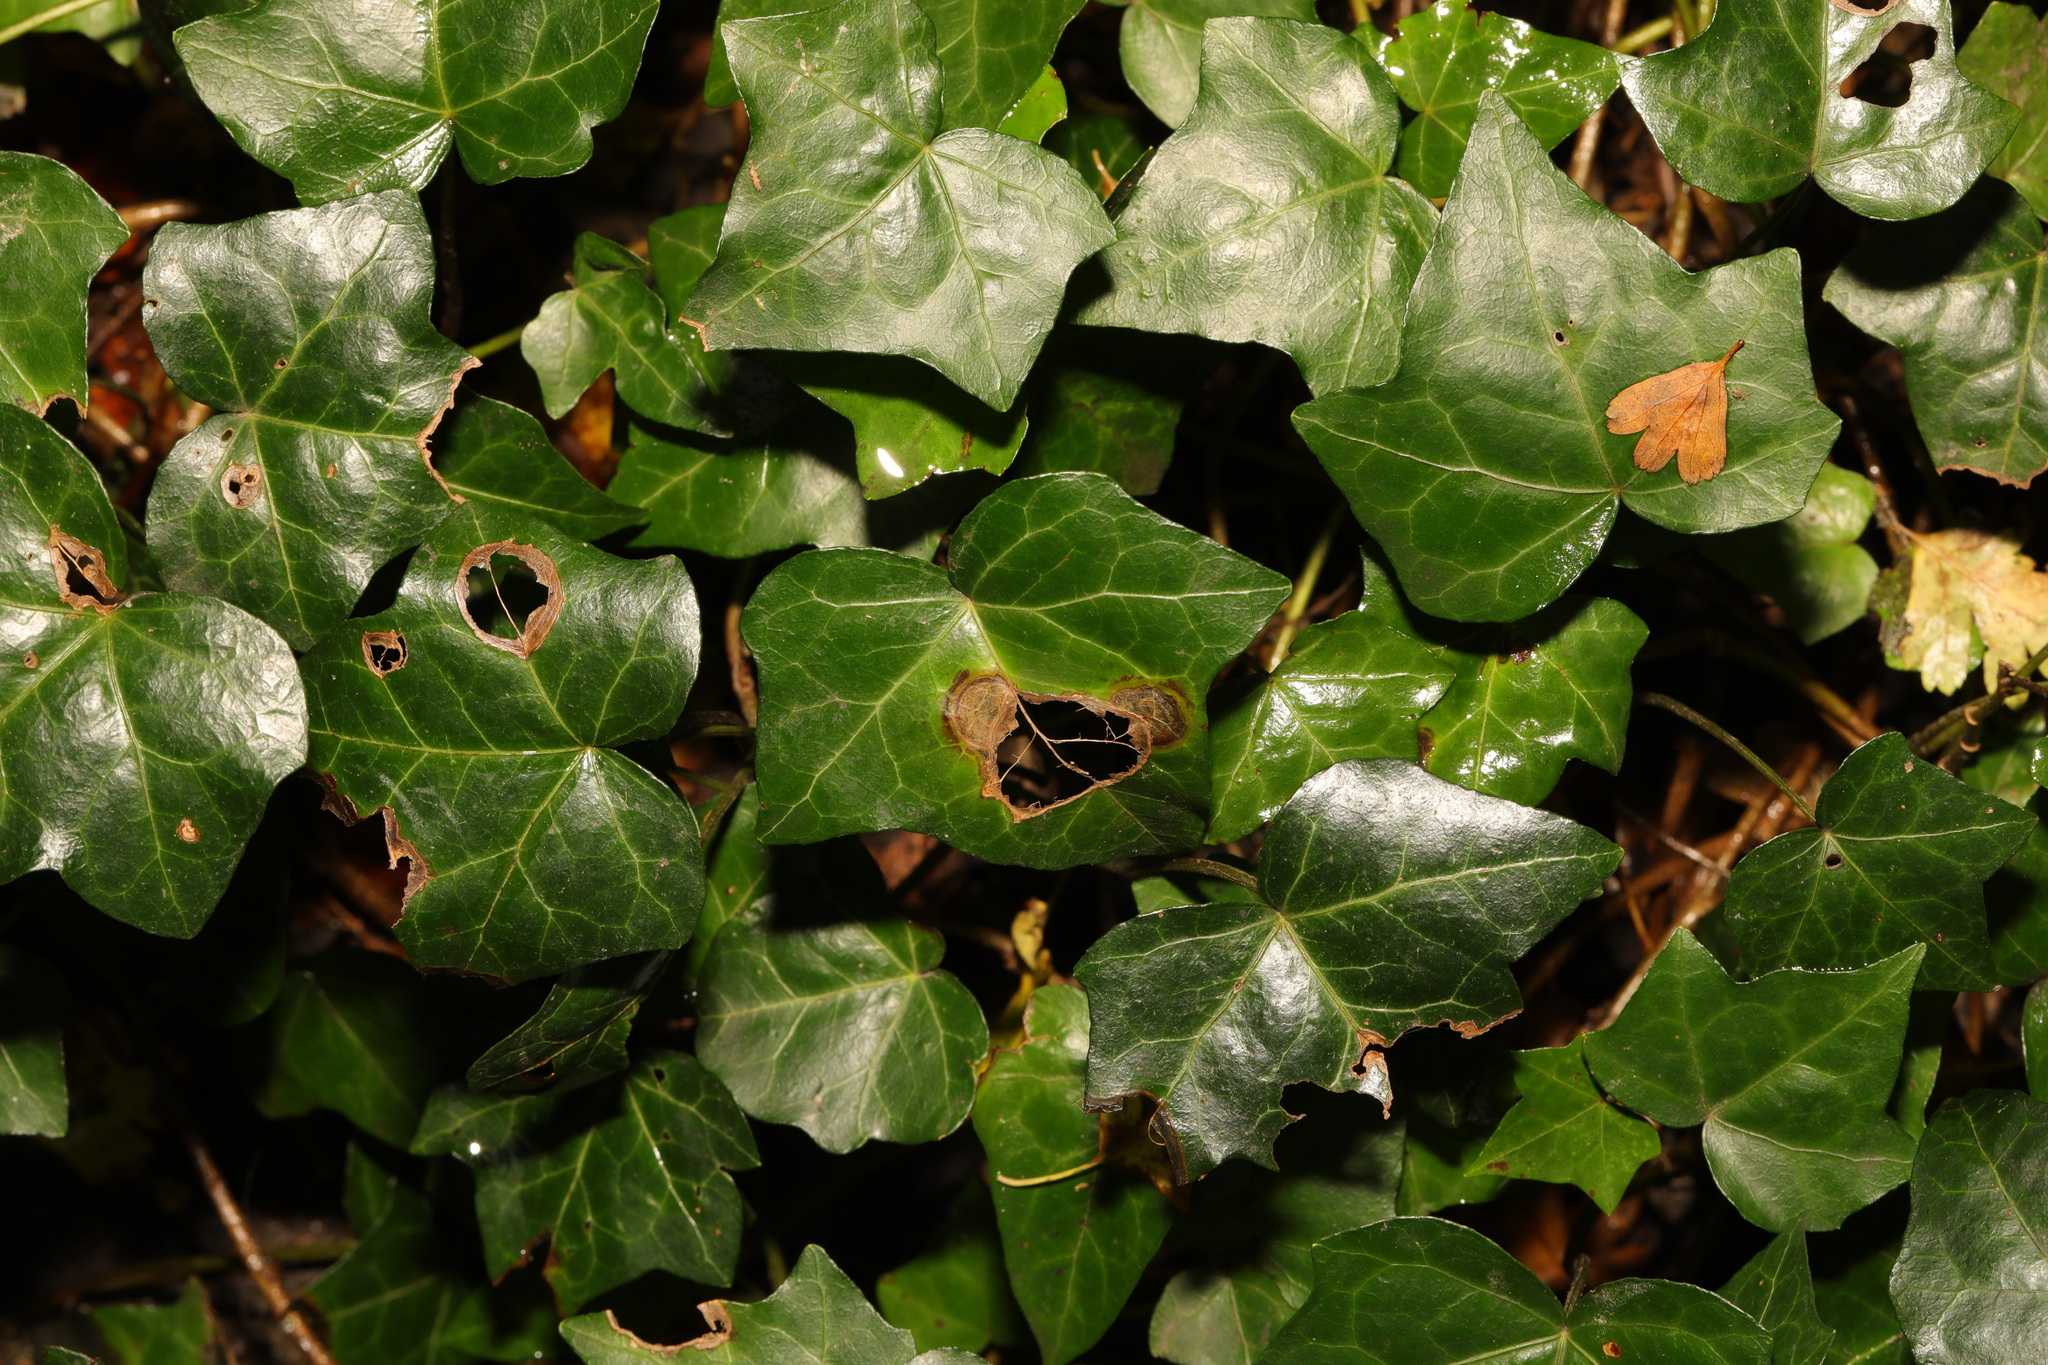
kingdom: Plantae
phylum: Tracheophyta
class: Magnoliopsida
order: Apiales
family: Araliaceae
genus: Hedera
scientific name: Hedera helix
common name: Ivy
